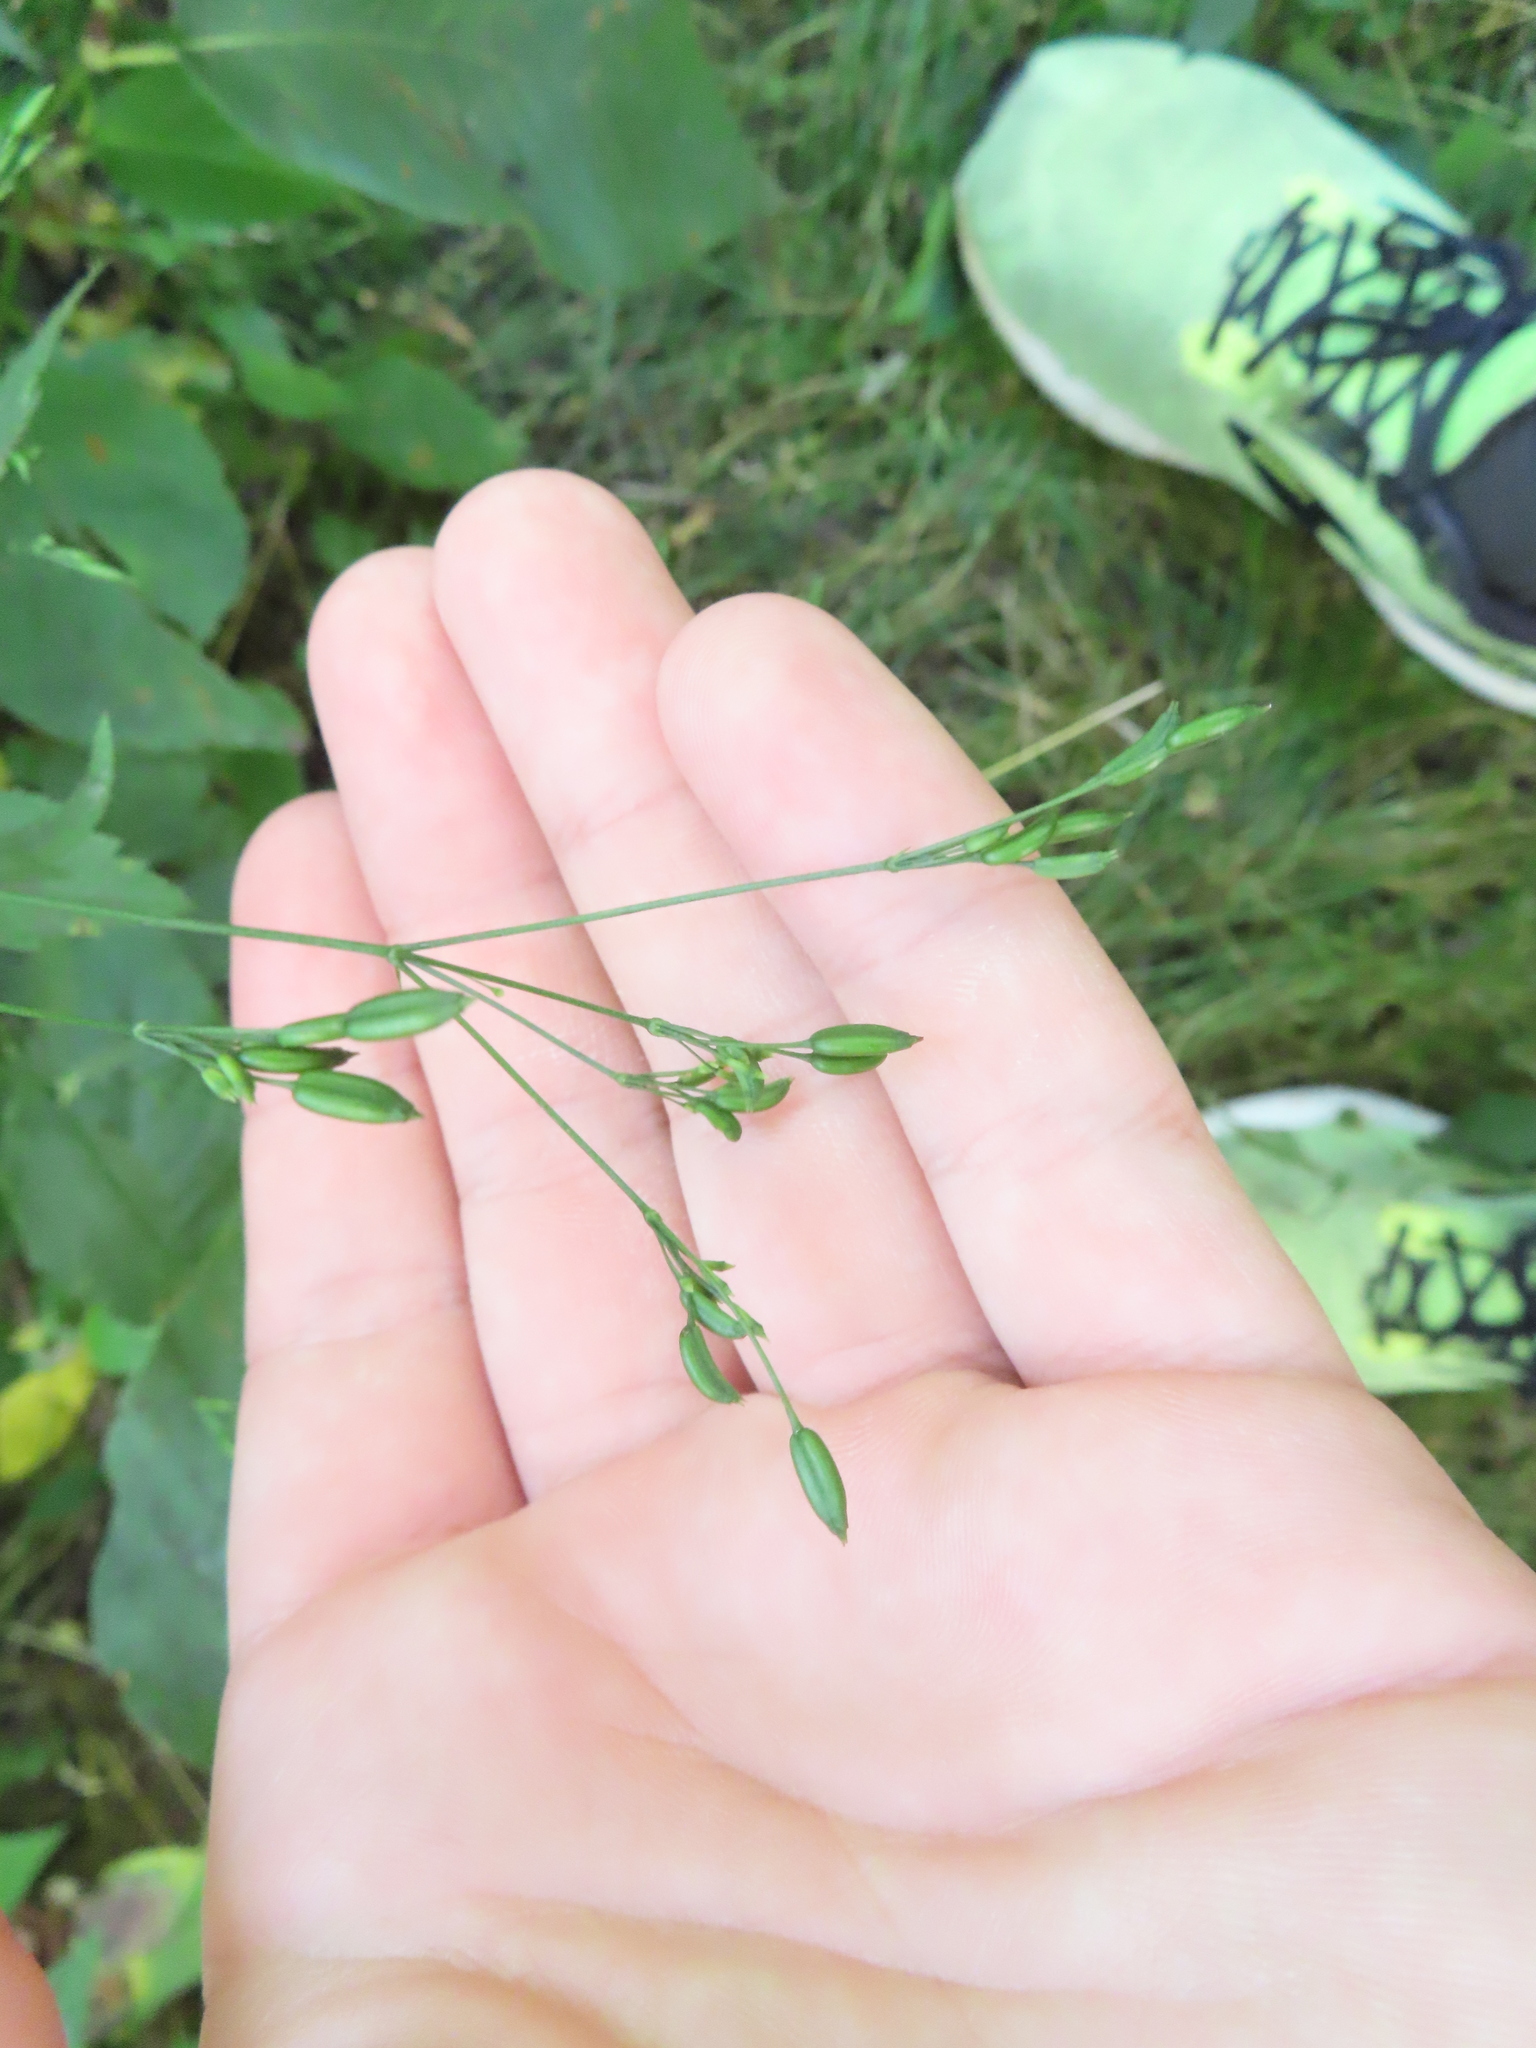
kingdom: Plantae
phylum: Tracheophyta
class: Magnoliopsida
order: Apiales
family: Apiaceae
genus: Cryptotaenia
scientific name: Cryptotaenia canadensis
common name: Honewort
